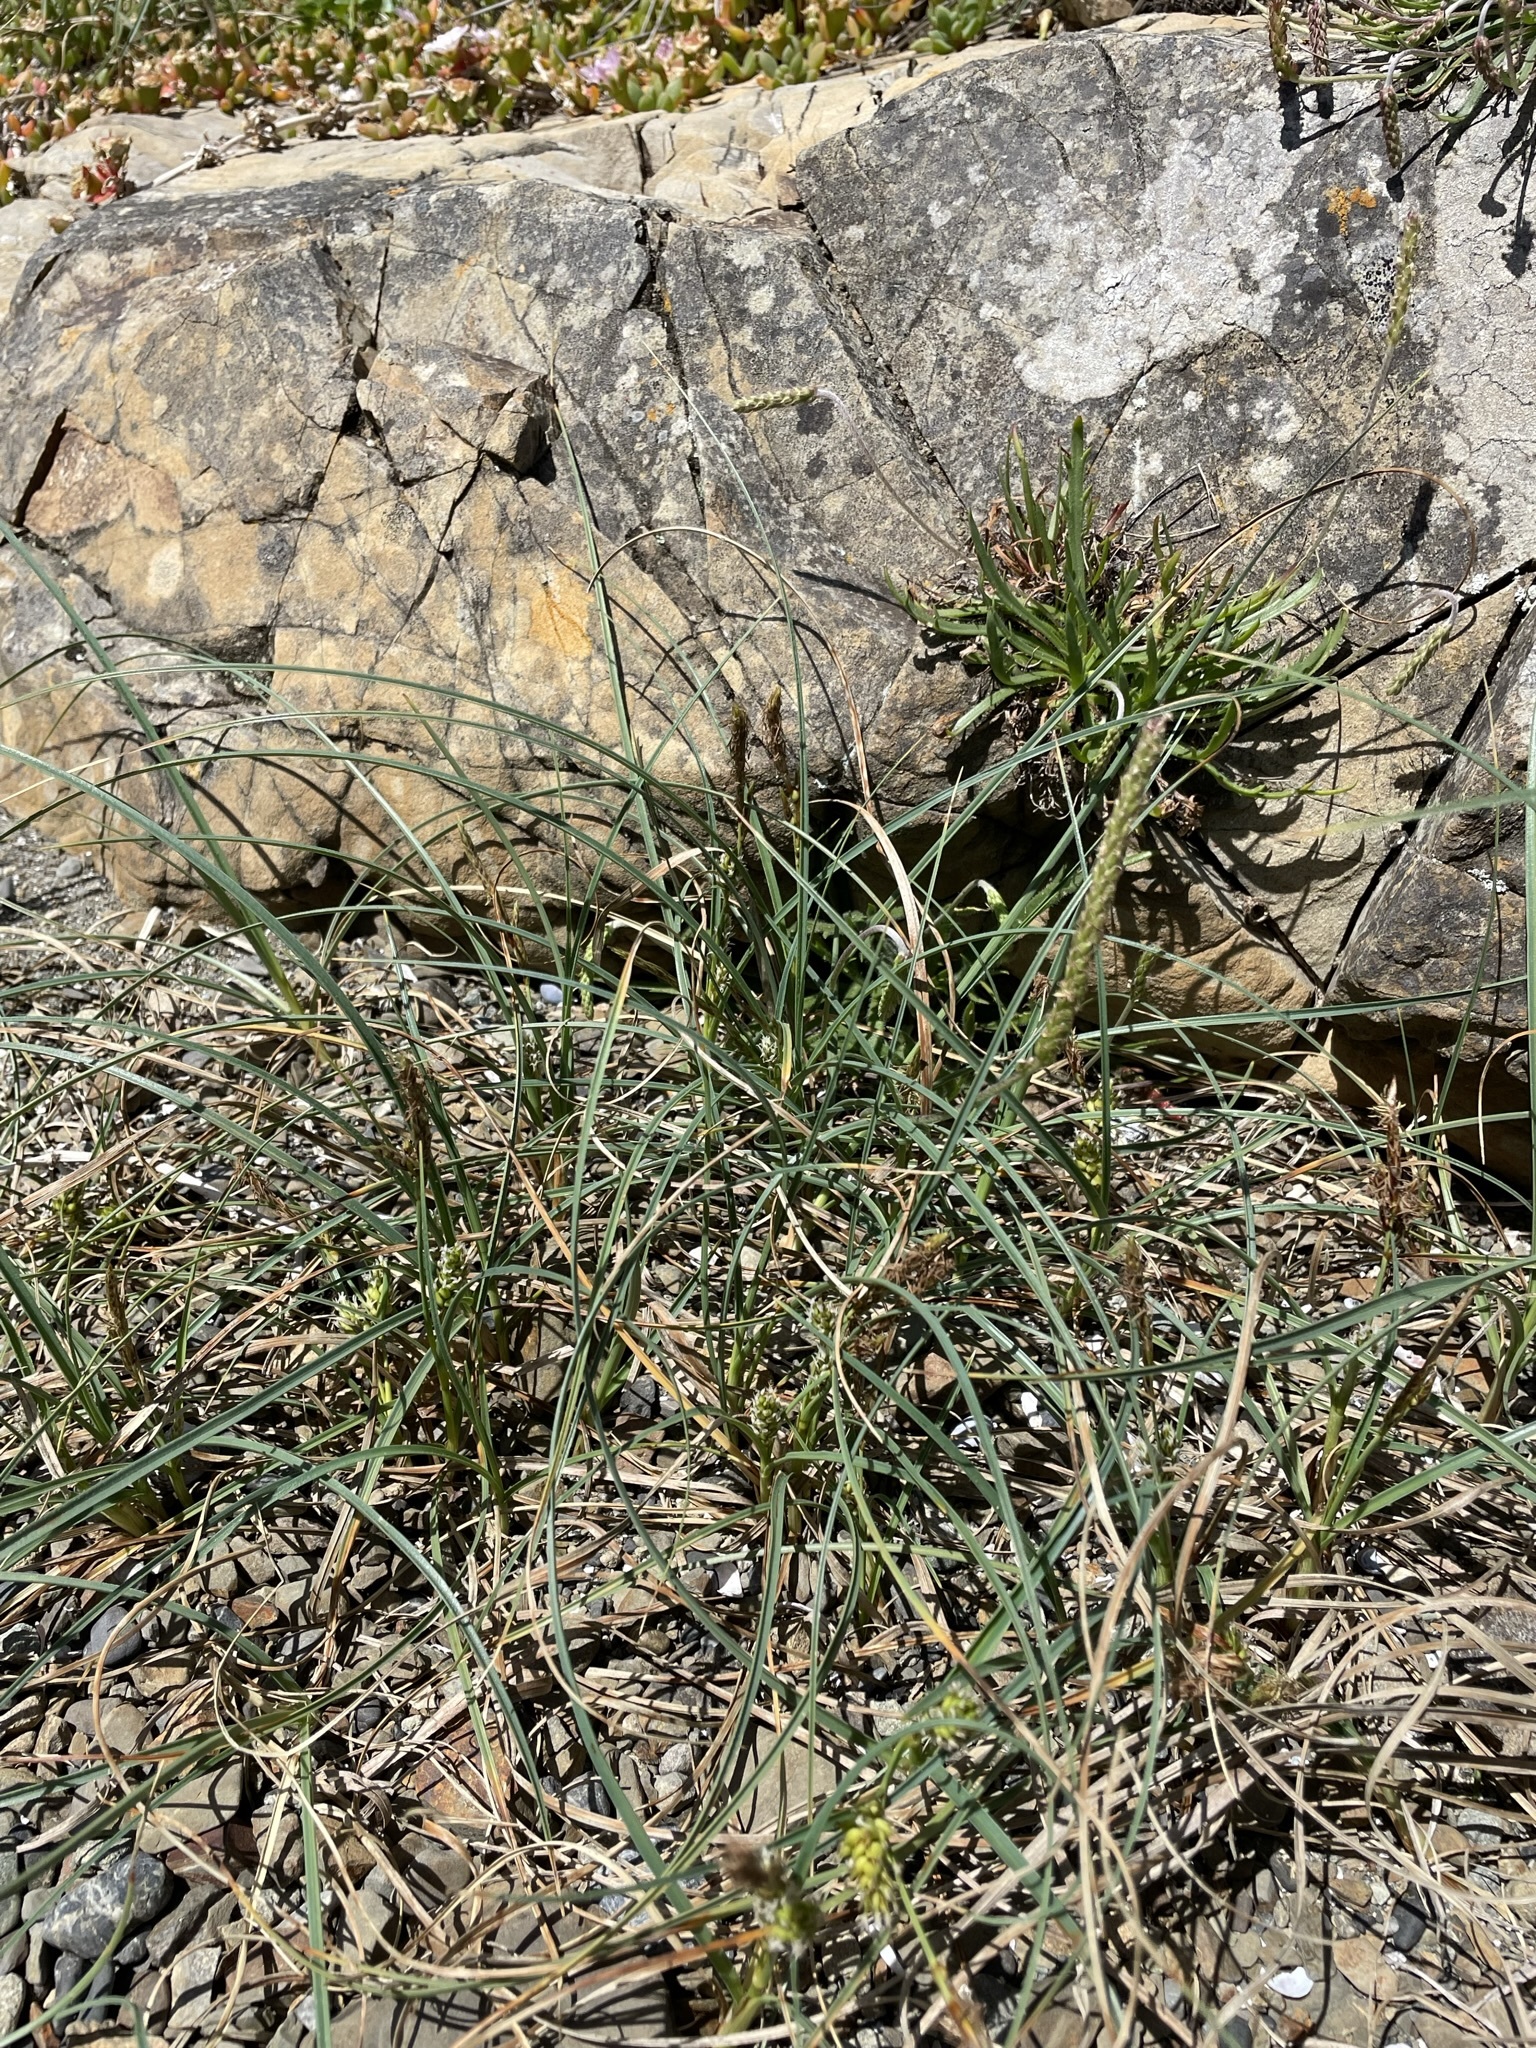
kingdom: Plantae
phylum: Tracheophyta
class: Liliopsida
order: Poales
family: Cyperaceae
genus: Carex
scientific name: Carex pumila
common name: Dwarf sedge
